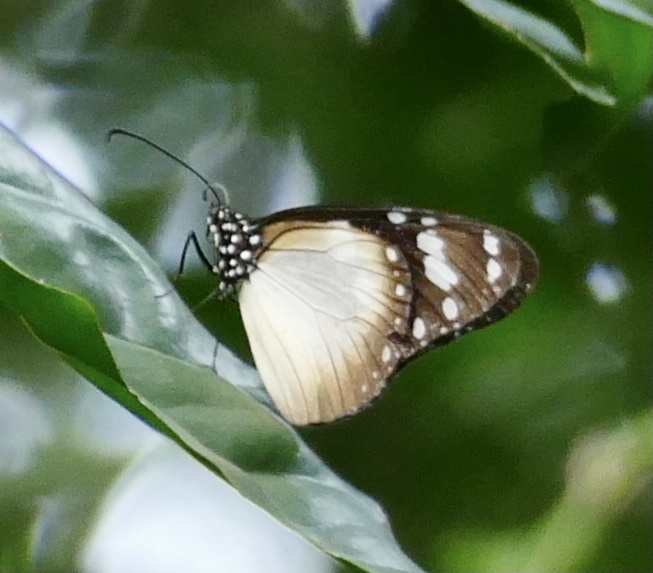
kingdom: Animalia
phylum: Arthropoda
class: Insecta
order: Lepidoptera
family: Nymphalidae
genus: Amauris
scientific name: Amauris damocles
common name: Small monk
